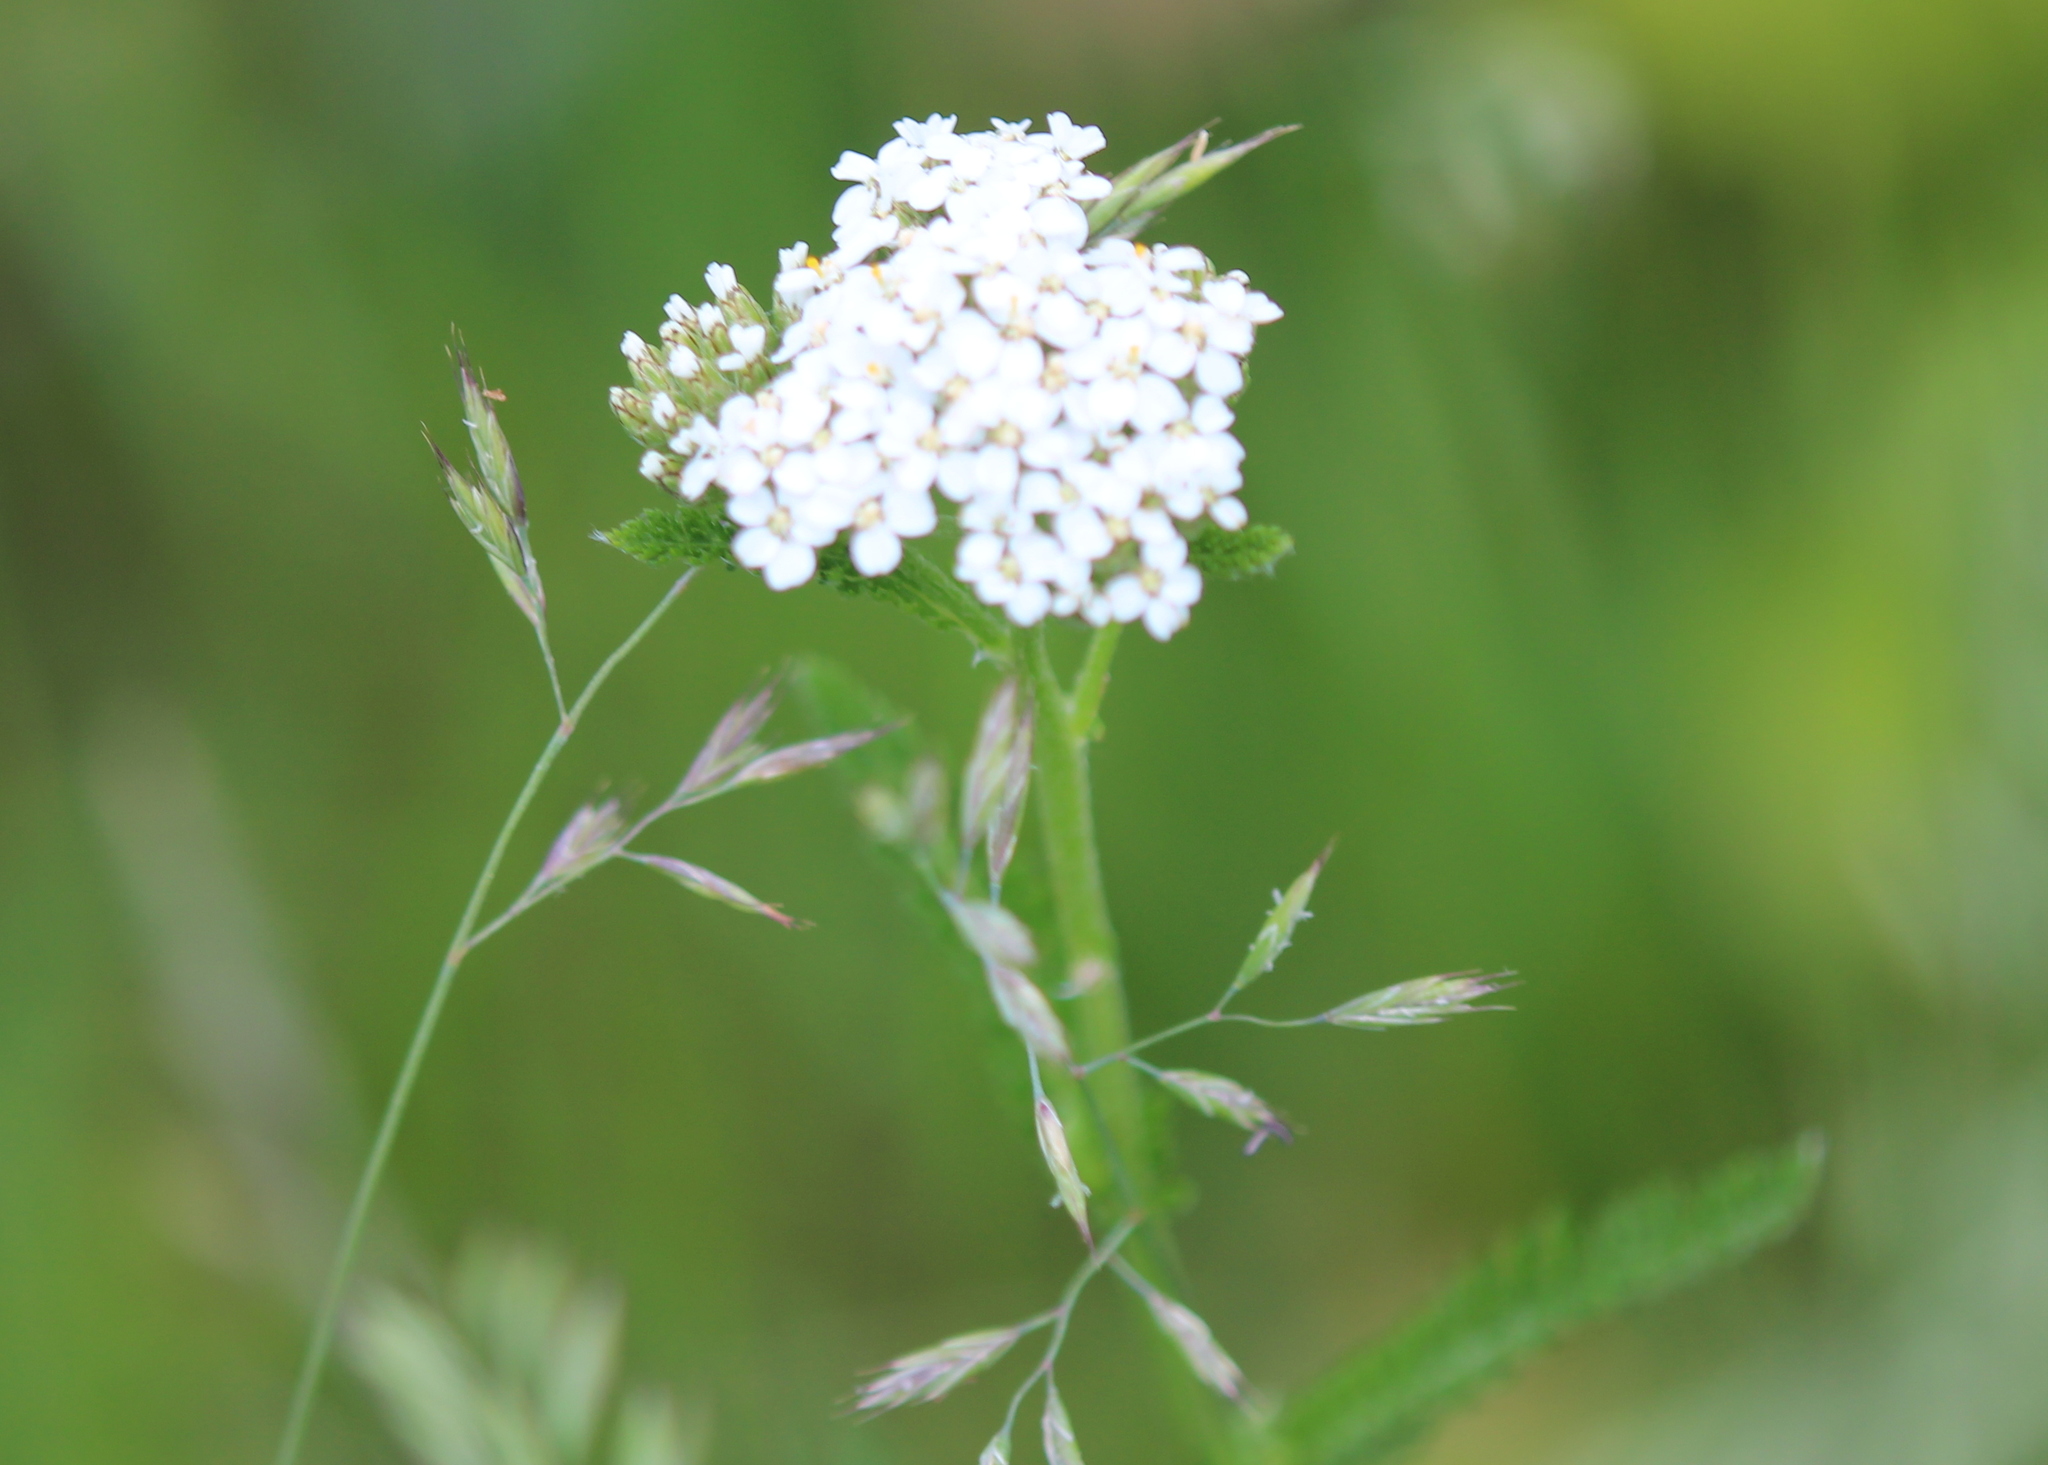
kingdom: Plantae
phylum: Tracheophyta
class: Magnoliopsida
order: Asterales
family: Asteraceae
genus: Achillea
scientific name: Achillea millefolium
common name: Yarrow
